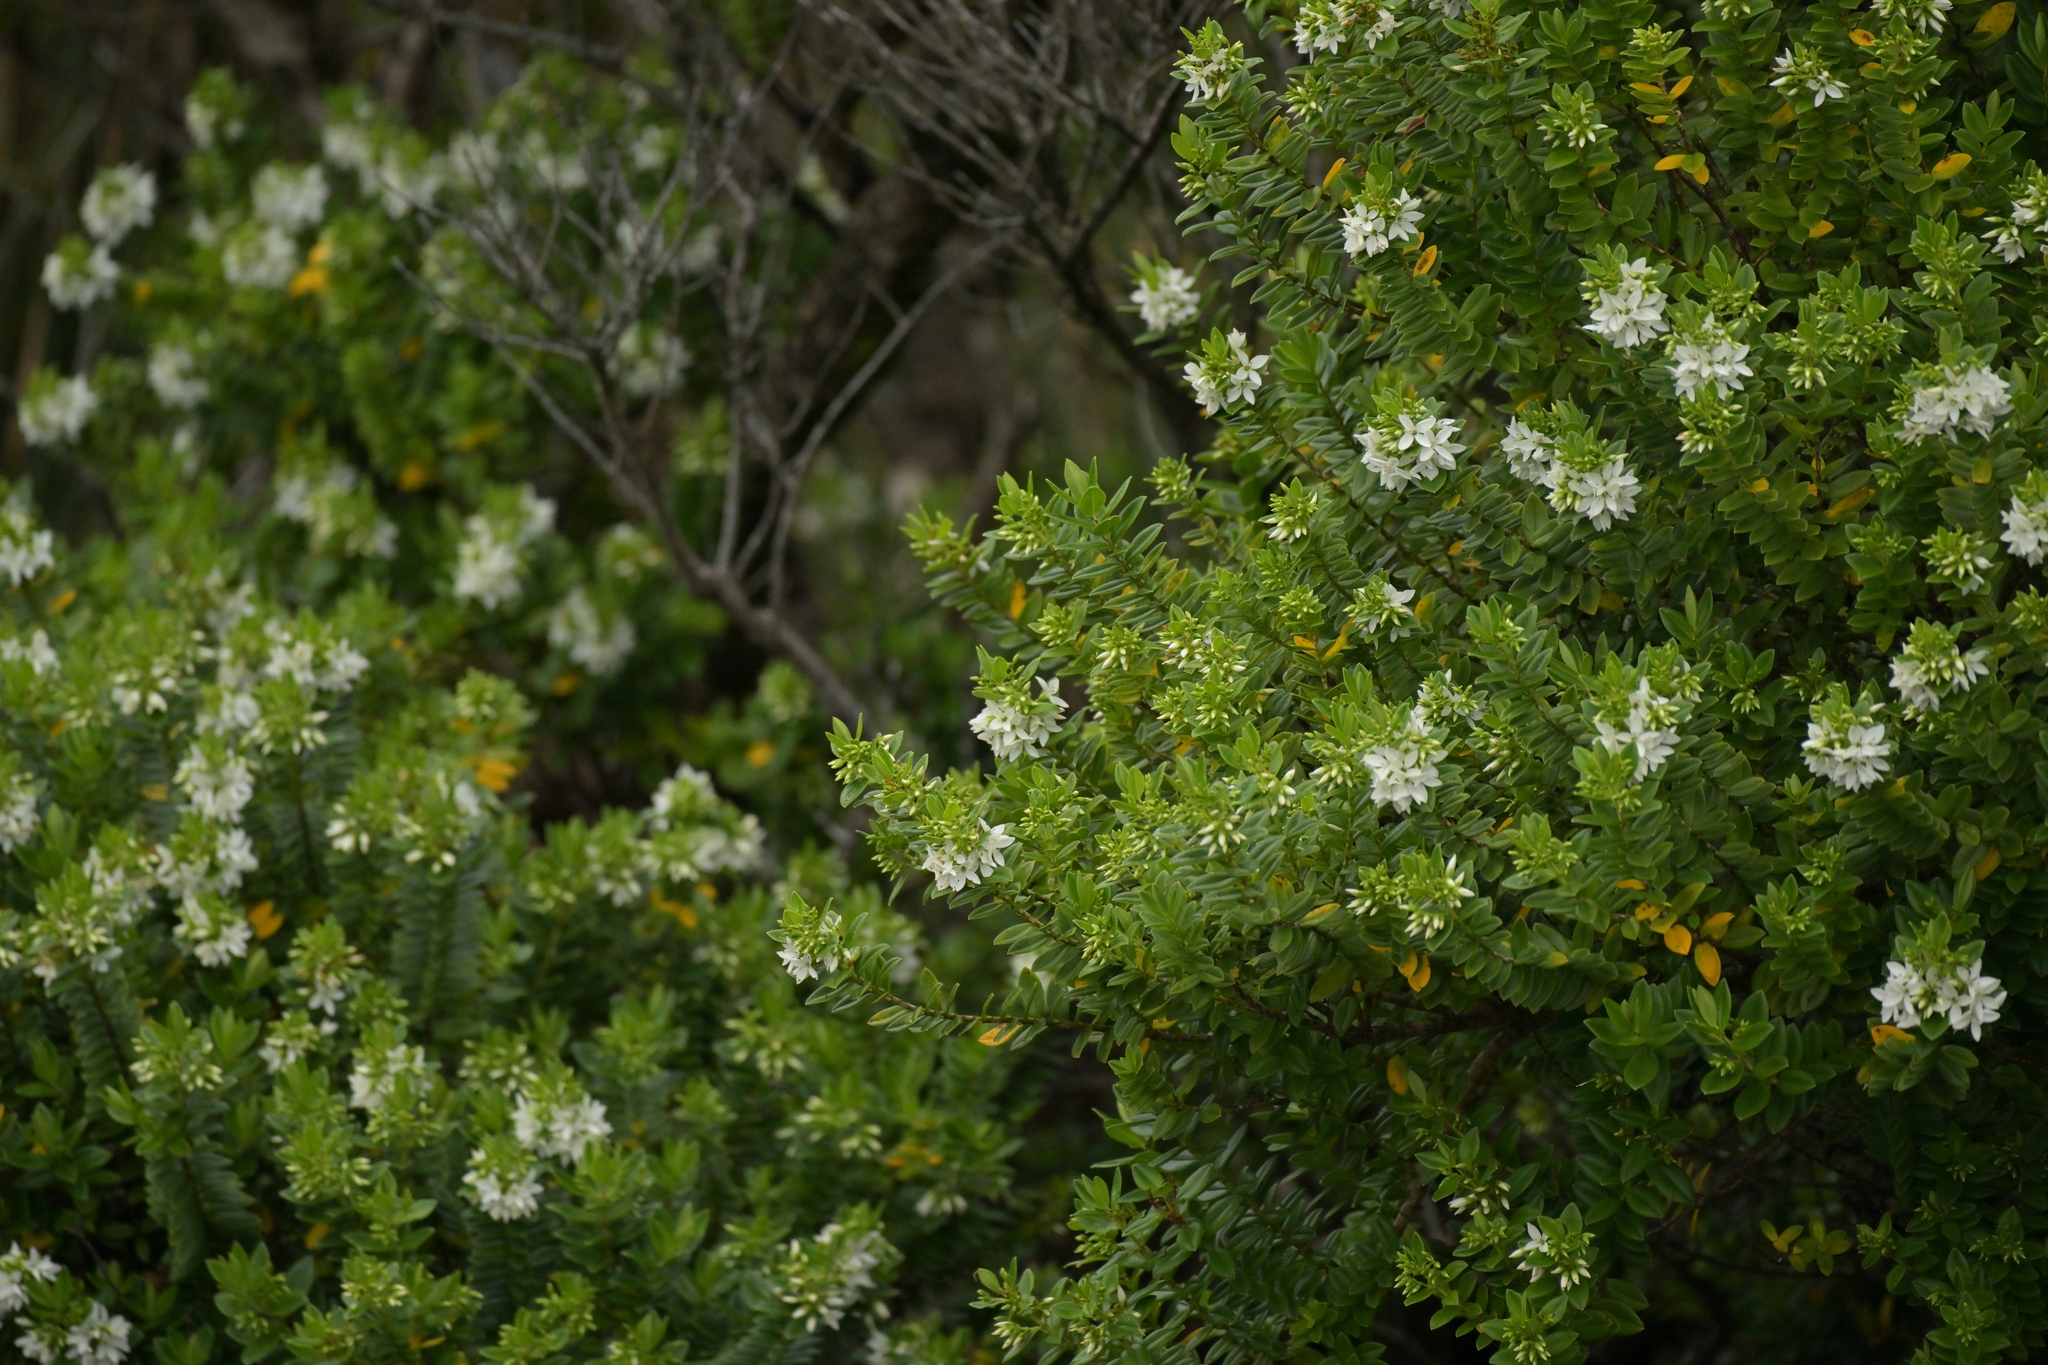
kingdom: Plantae
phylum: Tracheophyta
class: Magnoliopsida
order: Lamiales
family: Plantaginaceae
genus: Veronica
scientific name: Veronica elliptica
